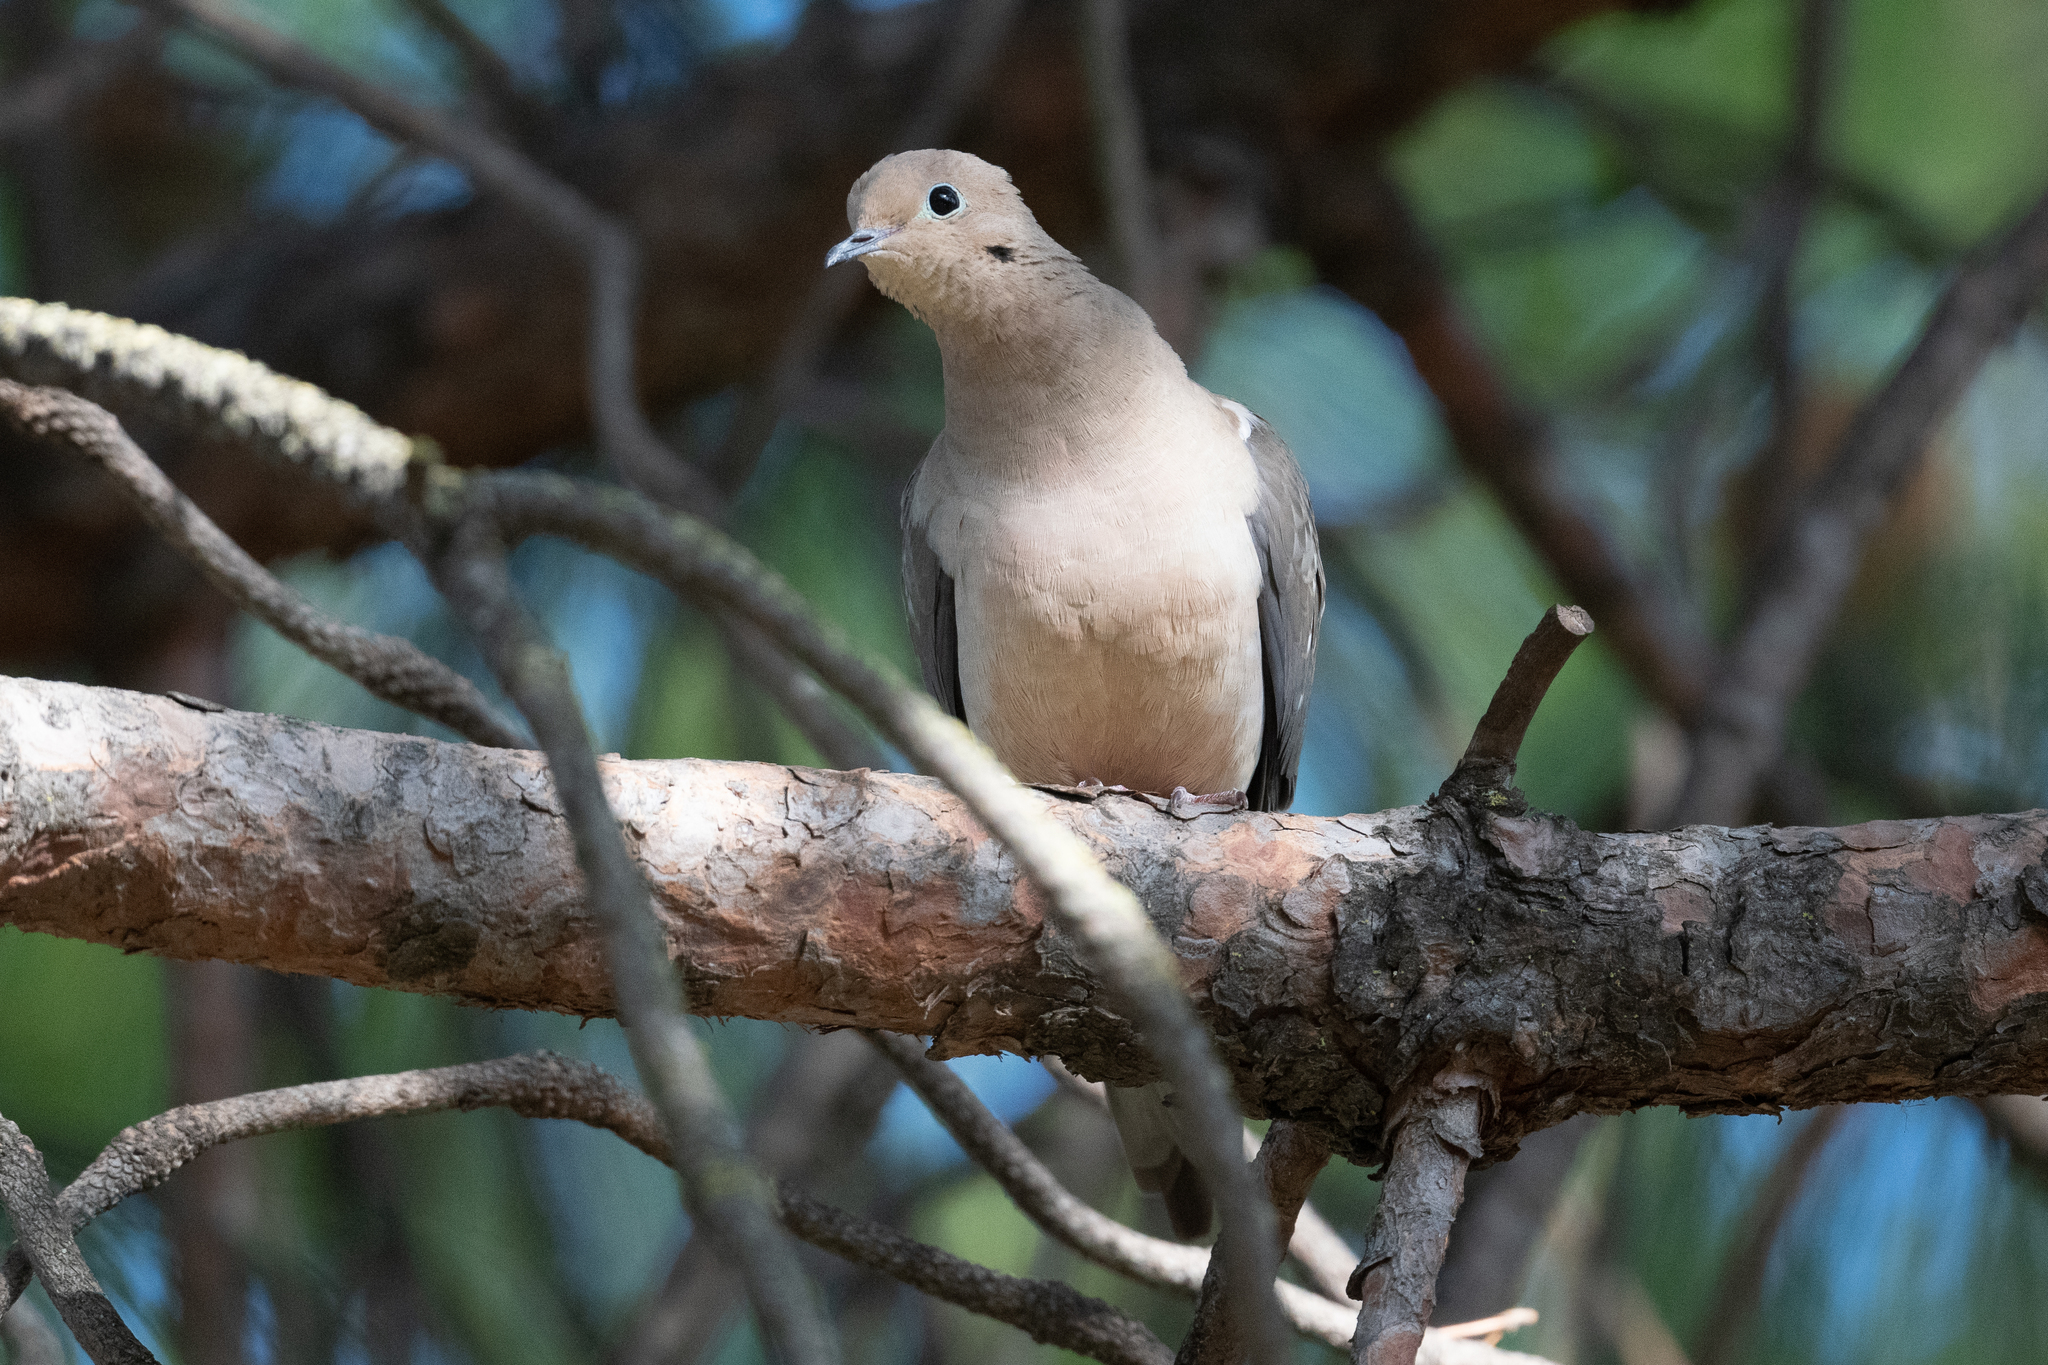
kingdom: Animalia
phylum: Chordata
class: Aves
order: Columbiformes
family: Columbidae
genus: Zenaida
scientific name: Zenaida macroura
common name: Mourning dove
